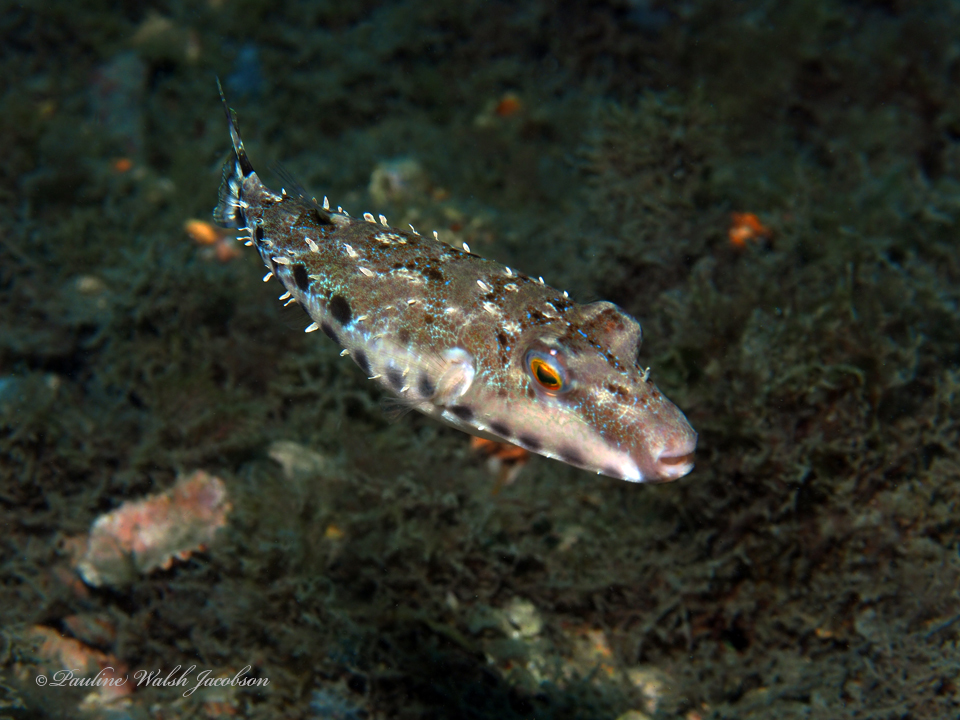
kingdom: Animalia
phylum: Chordata
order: Tetraodontiformes
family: Tetraodontidae
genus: Sphoeroides
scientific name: Sphoeroides spengleri
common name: Bandtail puffer
